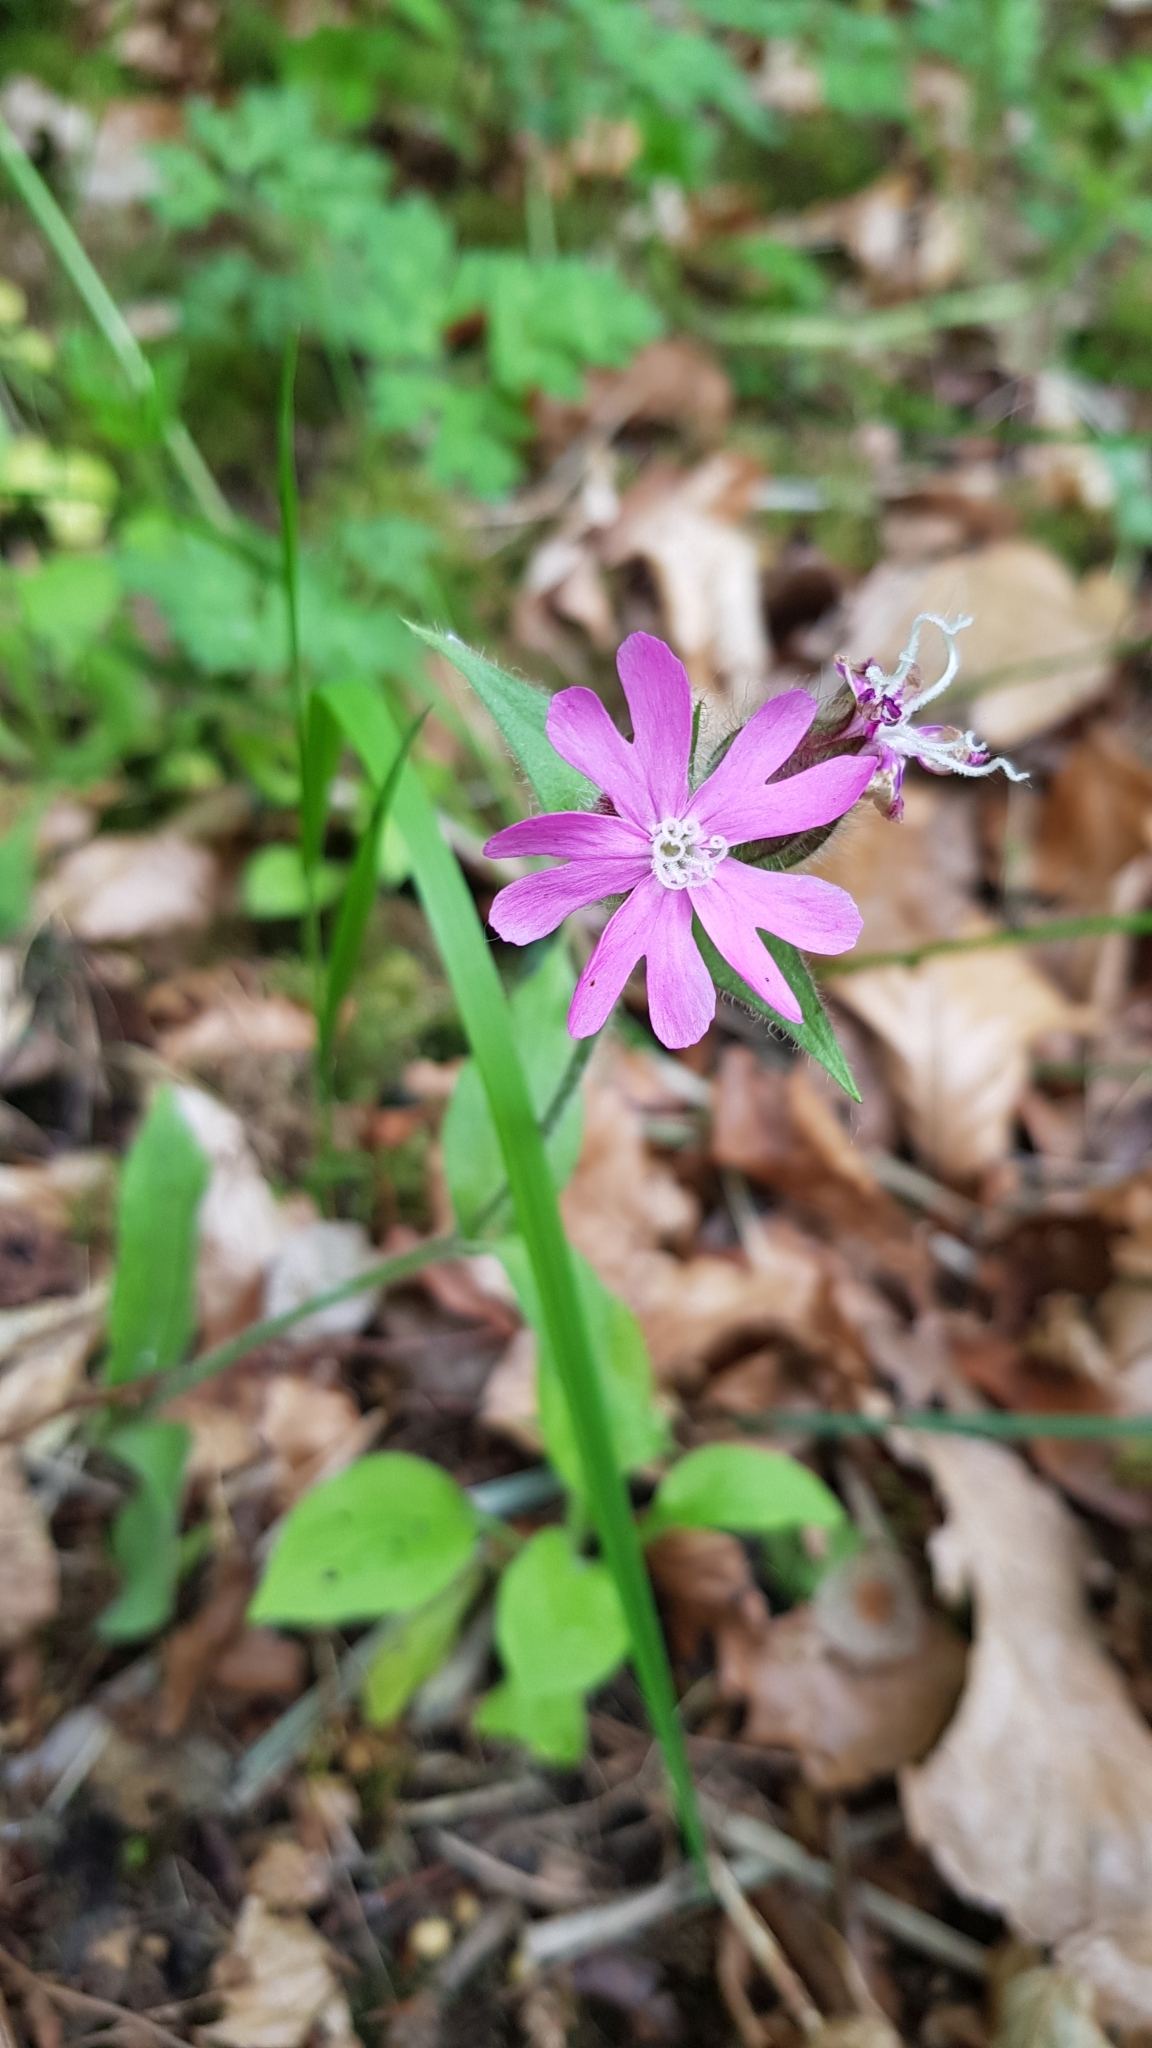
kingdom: Plantae
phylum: Tracheophyta
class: Magnoliopsida
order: Caryophyllales
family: Caryophyllaceae
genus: Silene
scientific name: Silene dioica
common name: Red campion
